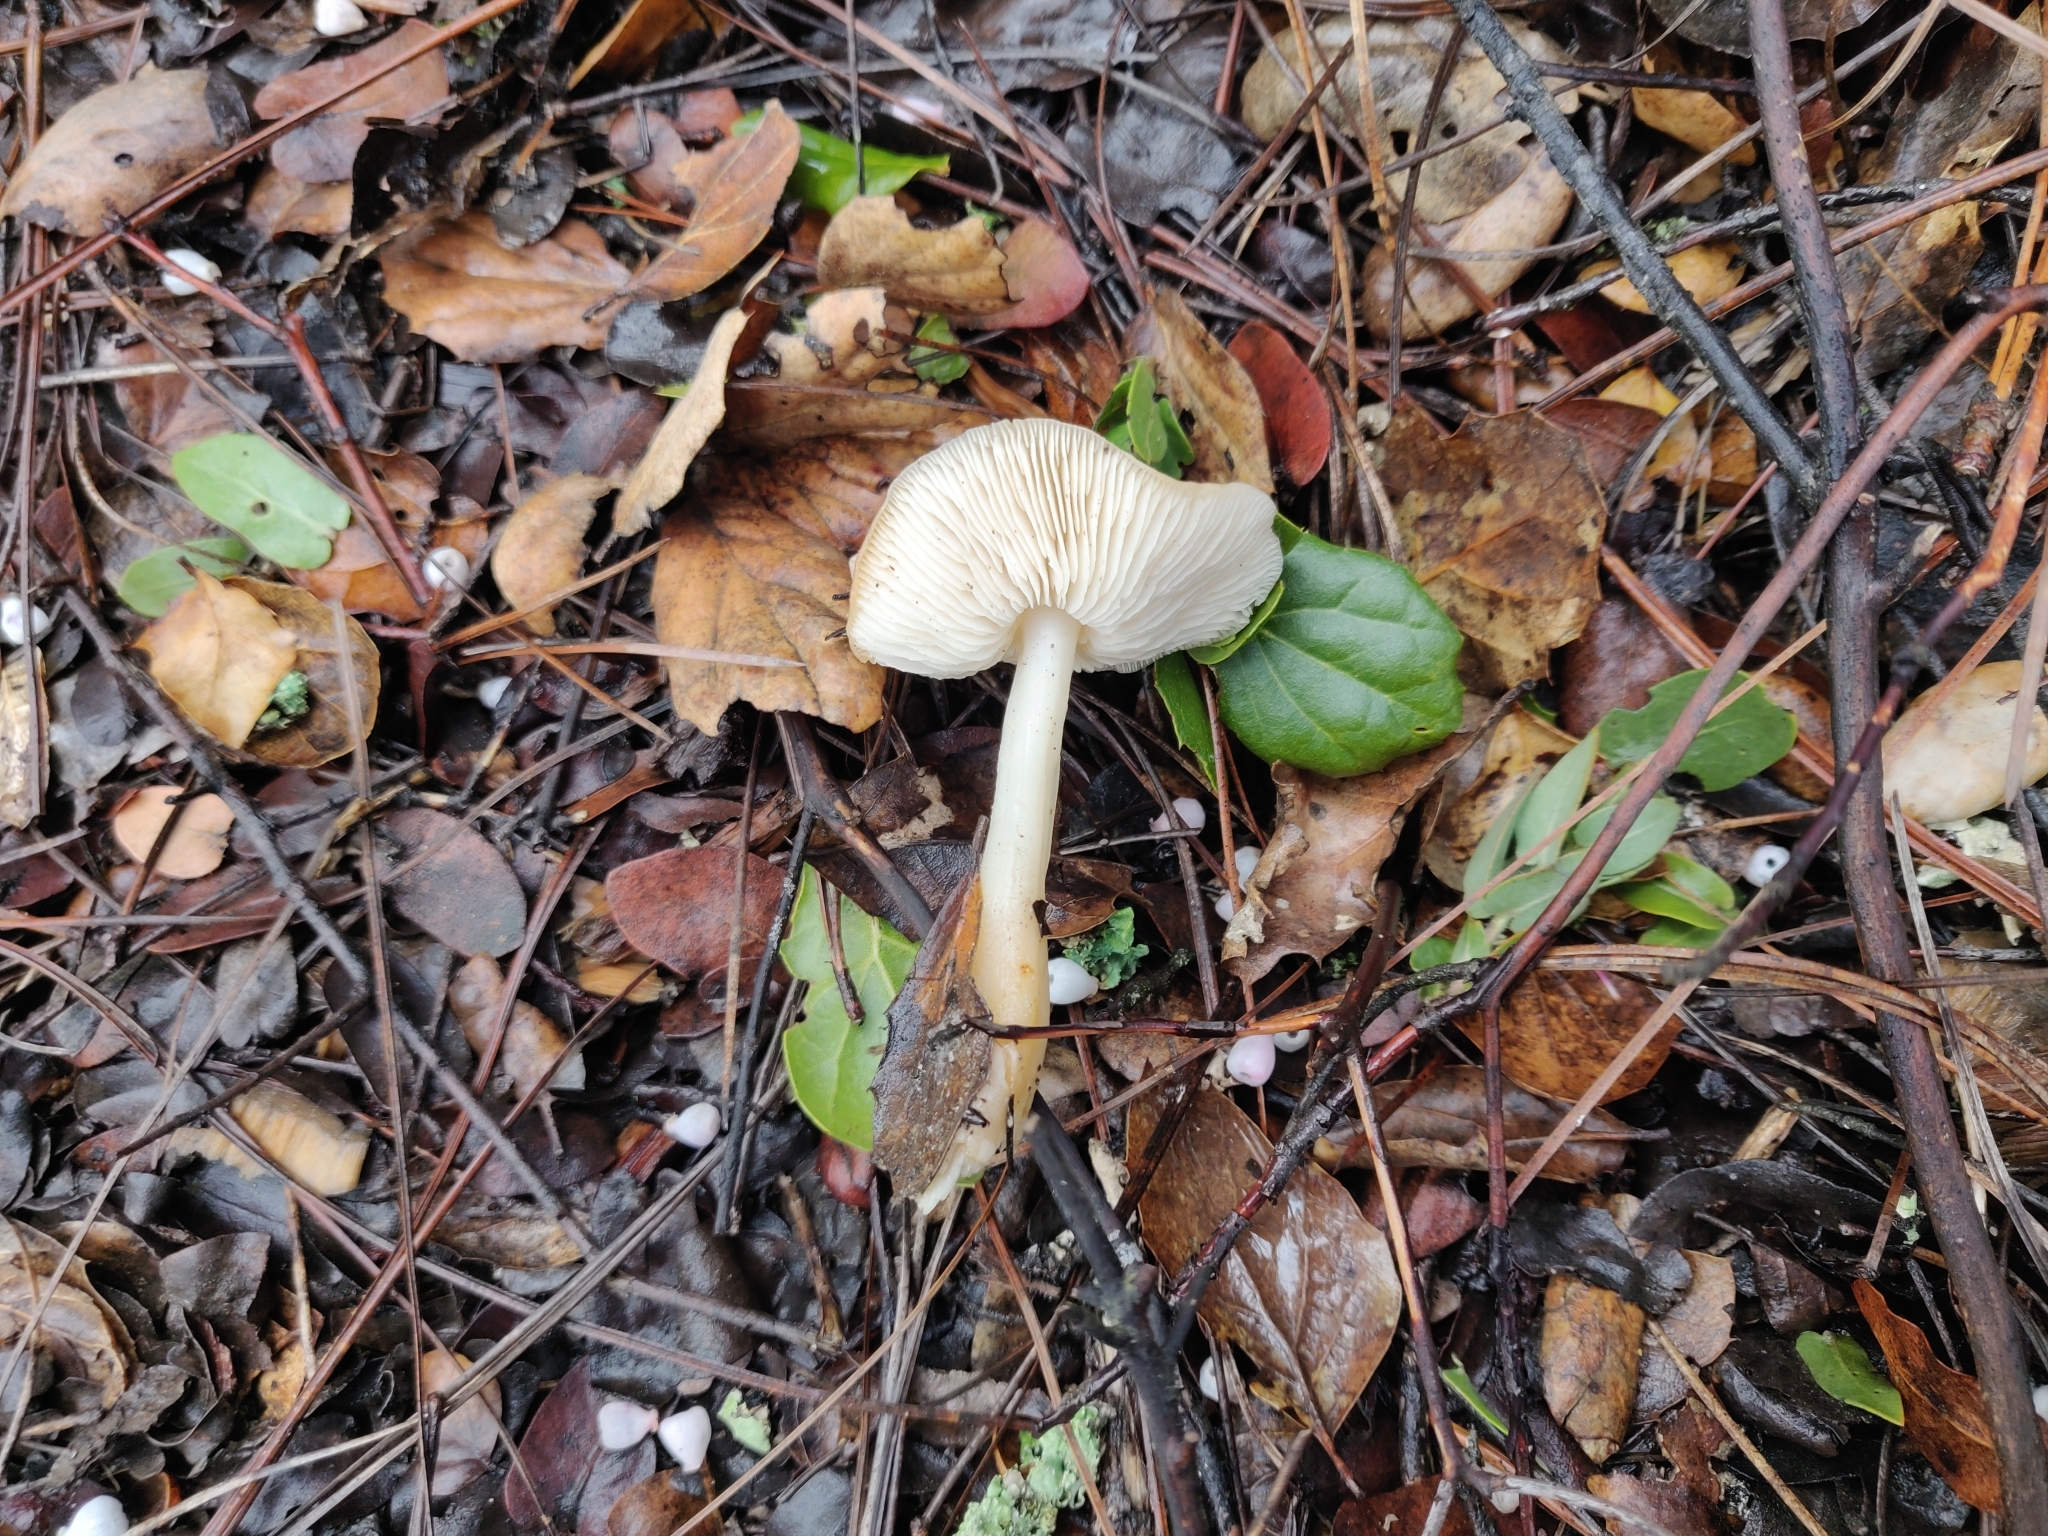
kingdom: Fungi
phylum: Basidiomycota
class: Agaricomycetes
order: Agaricales
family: Omphalotaceae
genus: Gymnopus
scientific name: Gymnopus dryophilus
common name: Penny top
